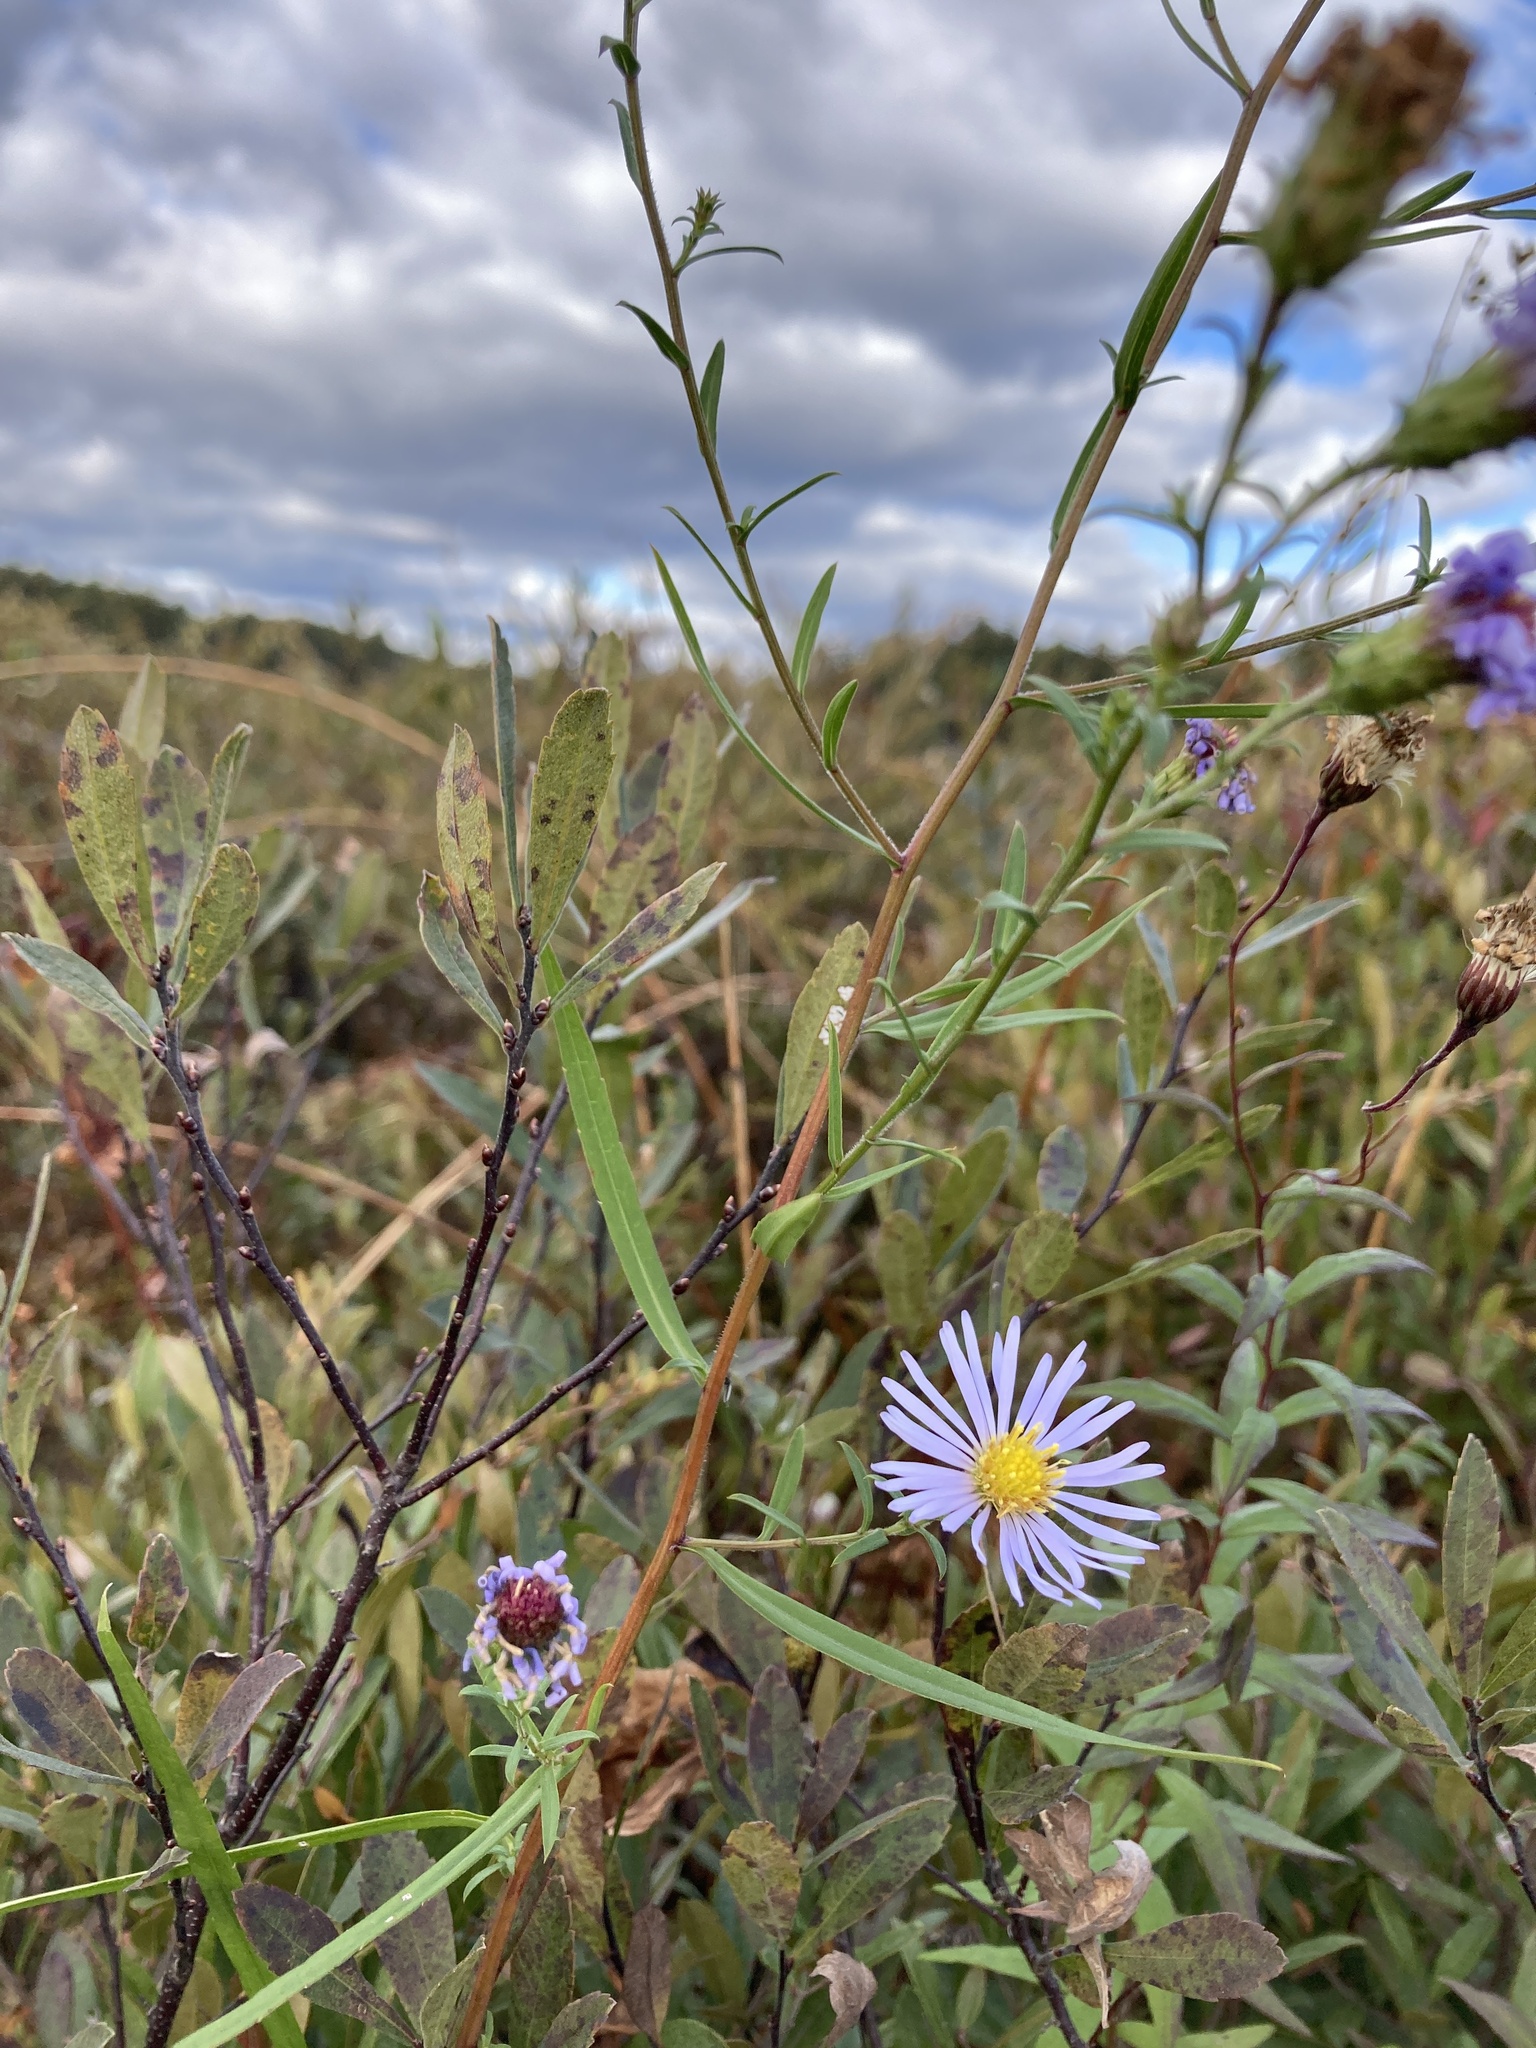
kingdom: Plantae
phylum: Tracheophyta
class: Magnoliopsida
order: Asterales
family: Asteraceae
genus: Symphyotrichum
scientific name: Symphyotrichum puniceum
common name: Bog aster
